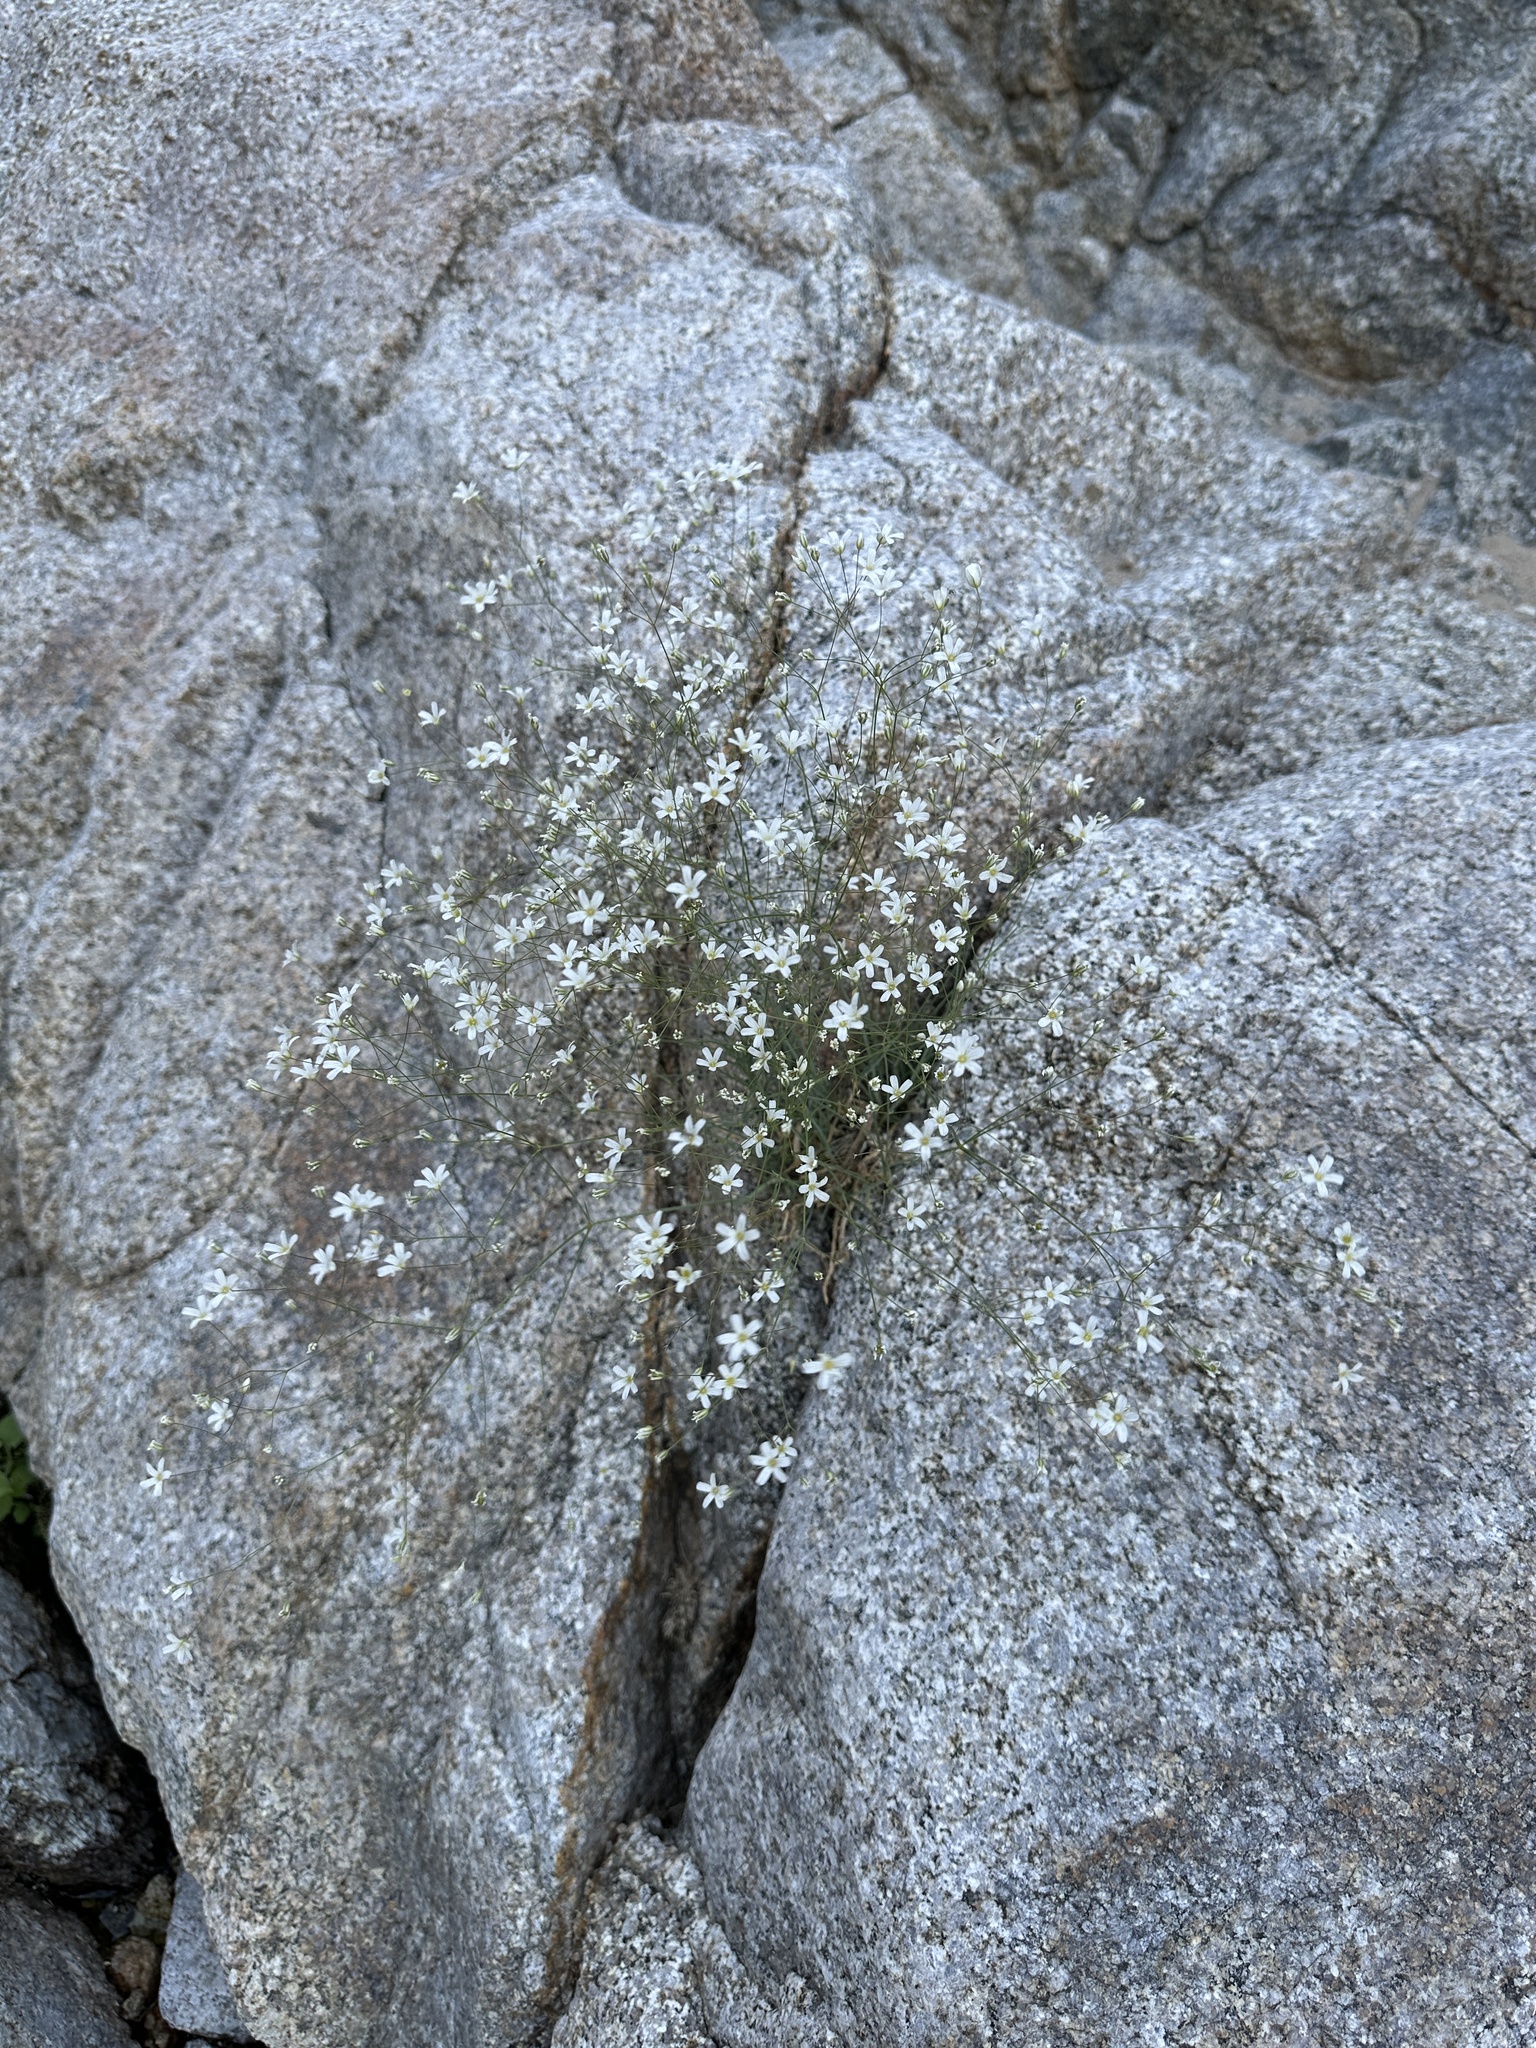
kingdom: Plantae
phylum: Tracheophyta
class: Magnoliopsida
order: Caryophyllales
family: Caryophyllaceae
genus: Eremogone
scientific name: Eremogone ferrisiae
